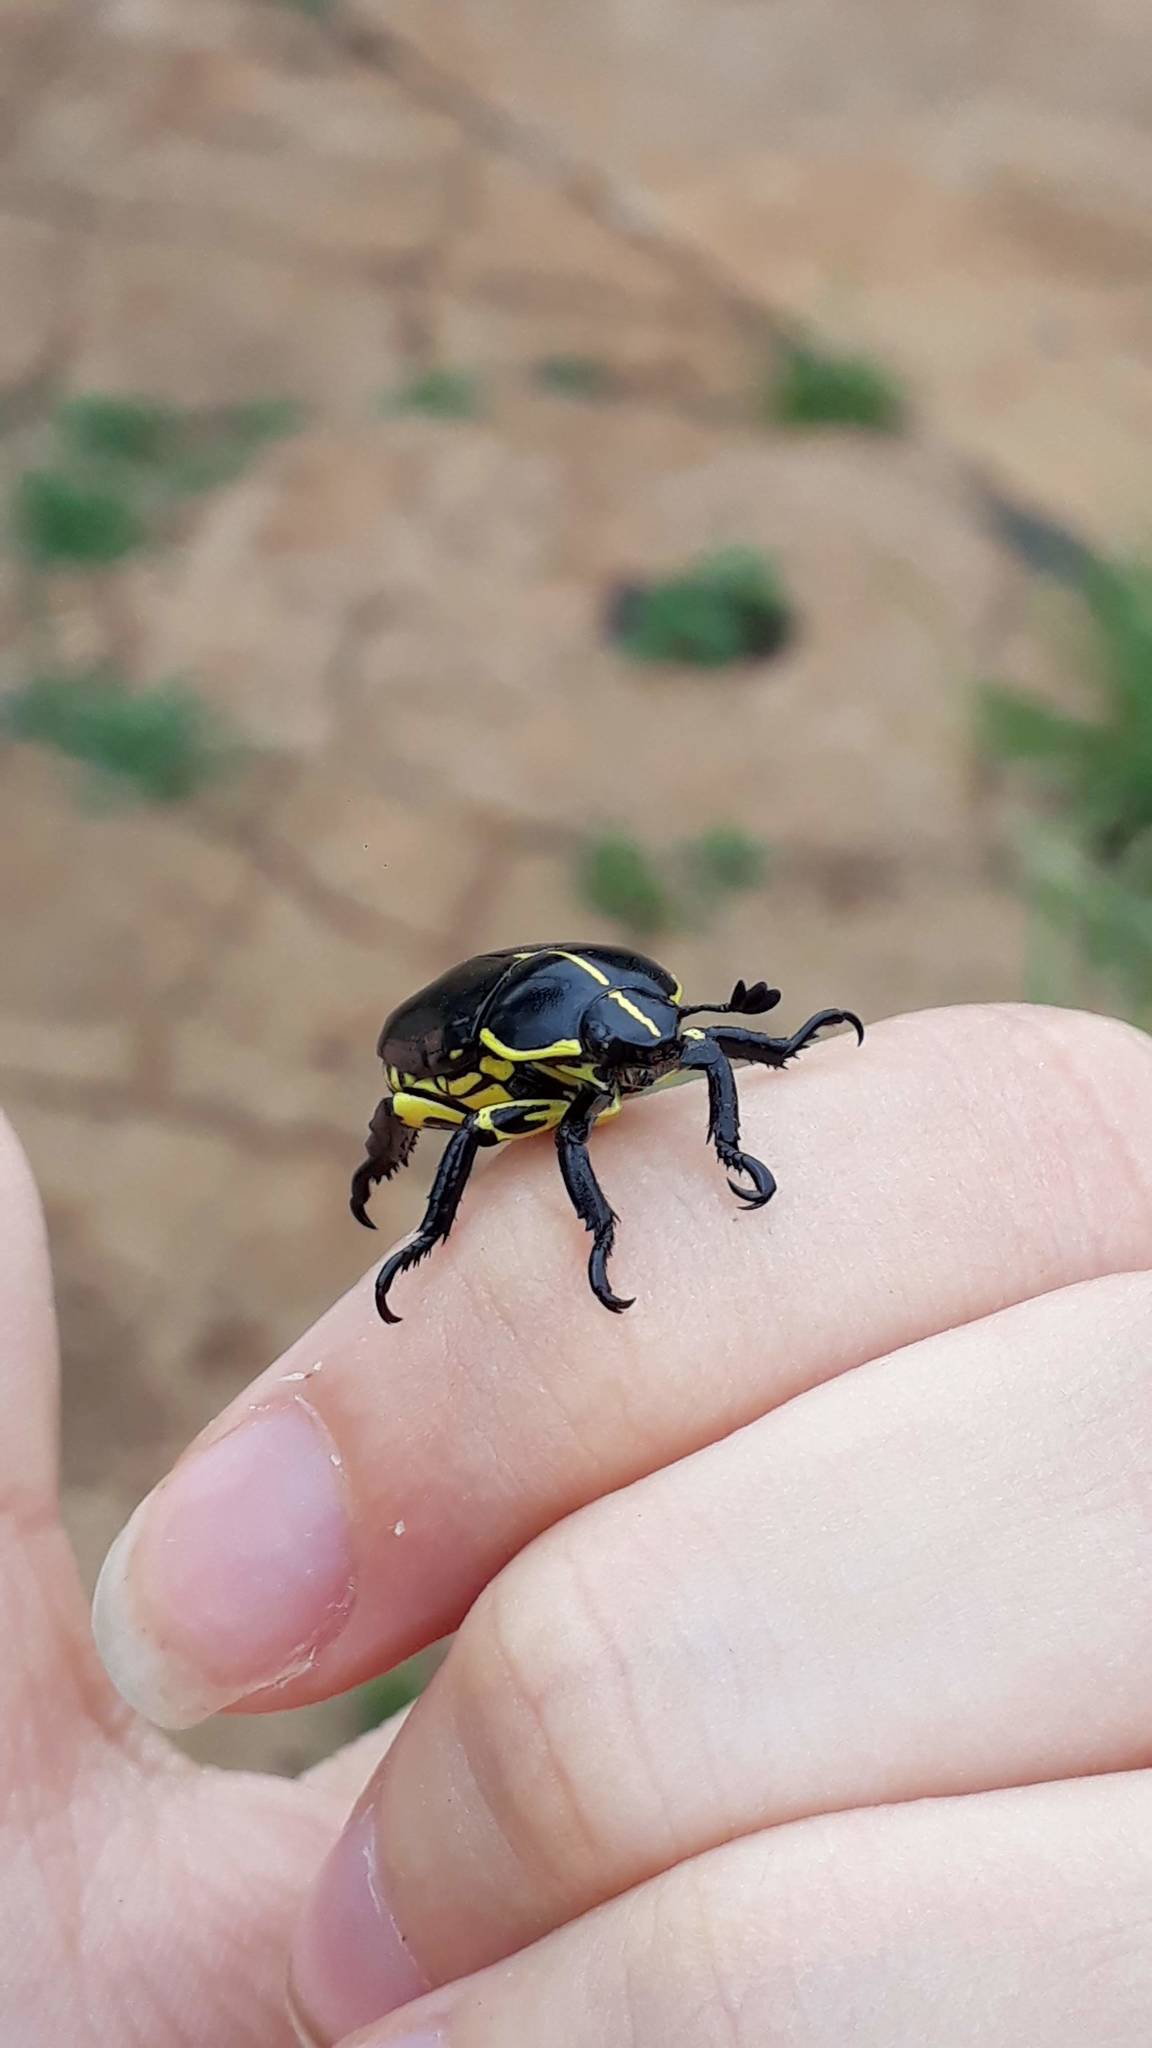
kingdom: Animalia
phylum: Arthropoda
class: Insecta
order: Coleoptera
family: Scarabaeidae
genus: Rutela
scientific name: Rutela lineola
